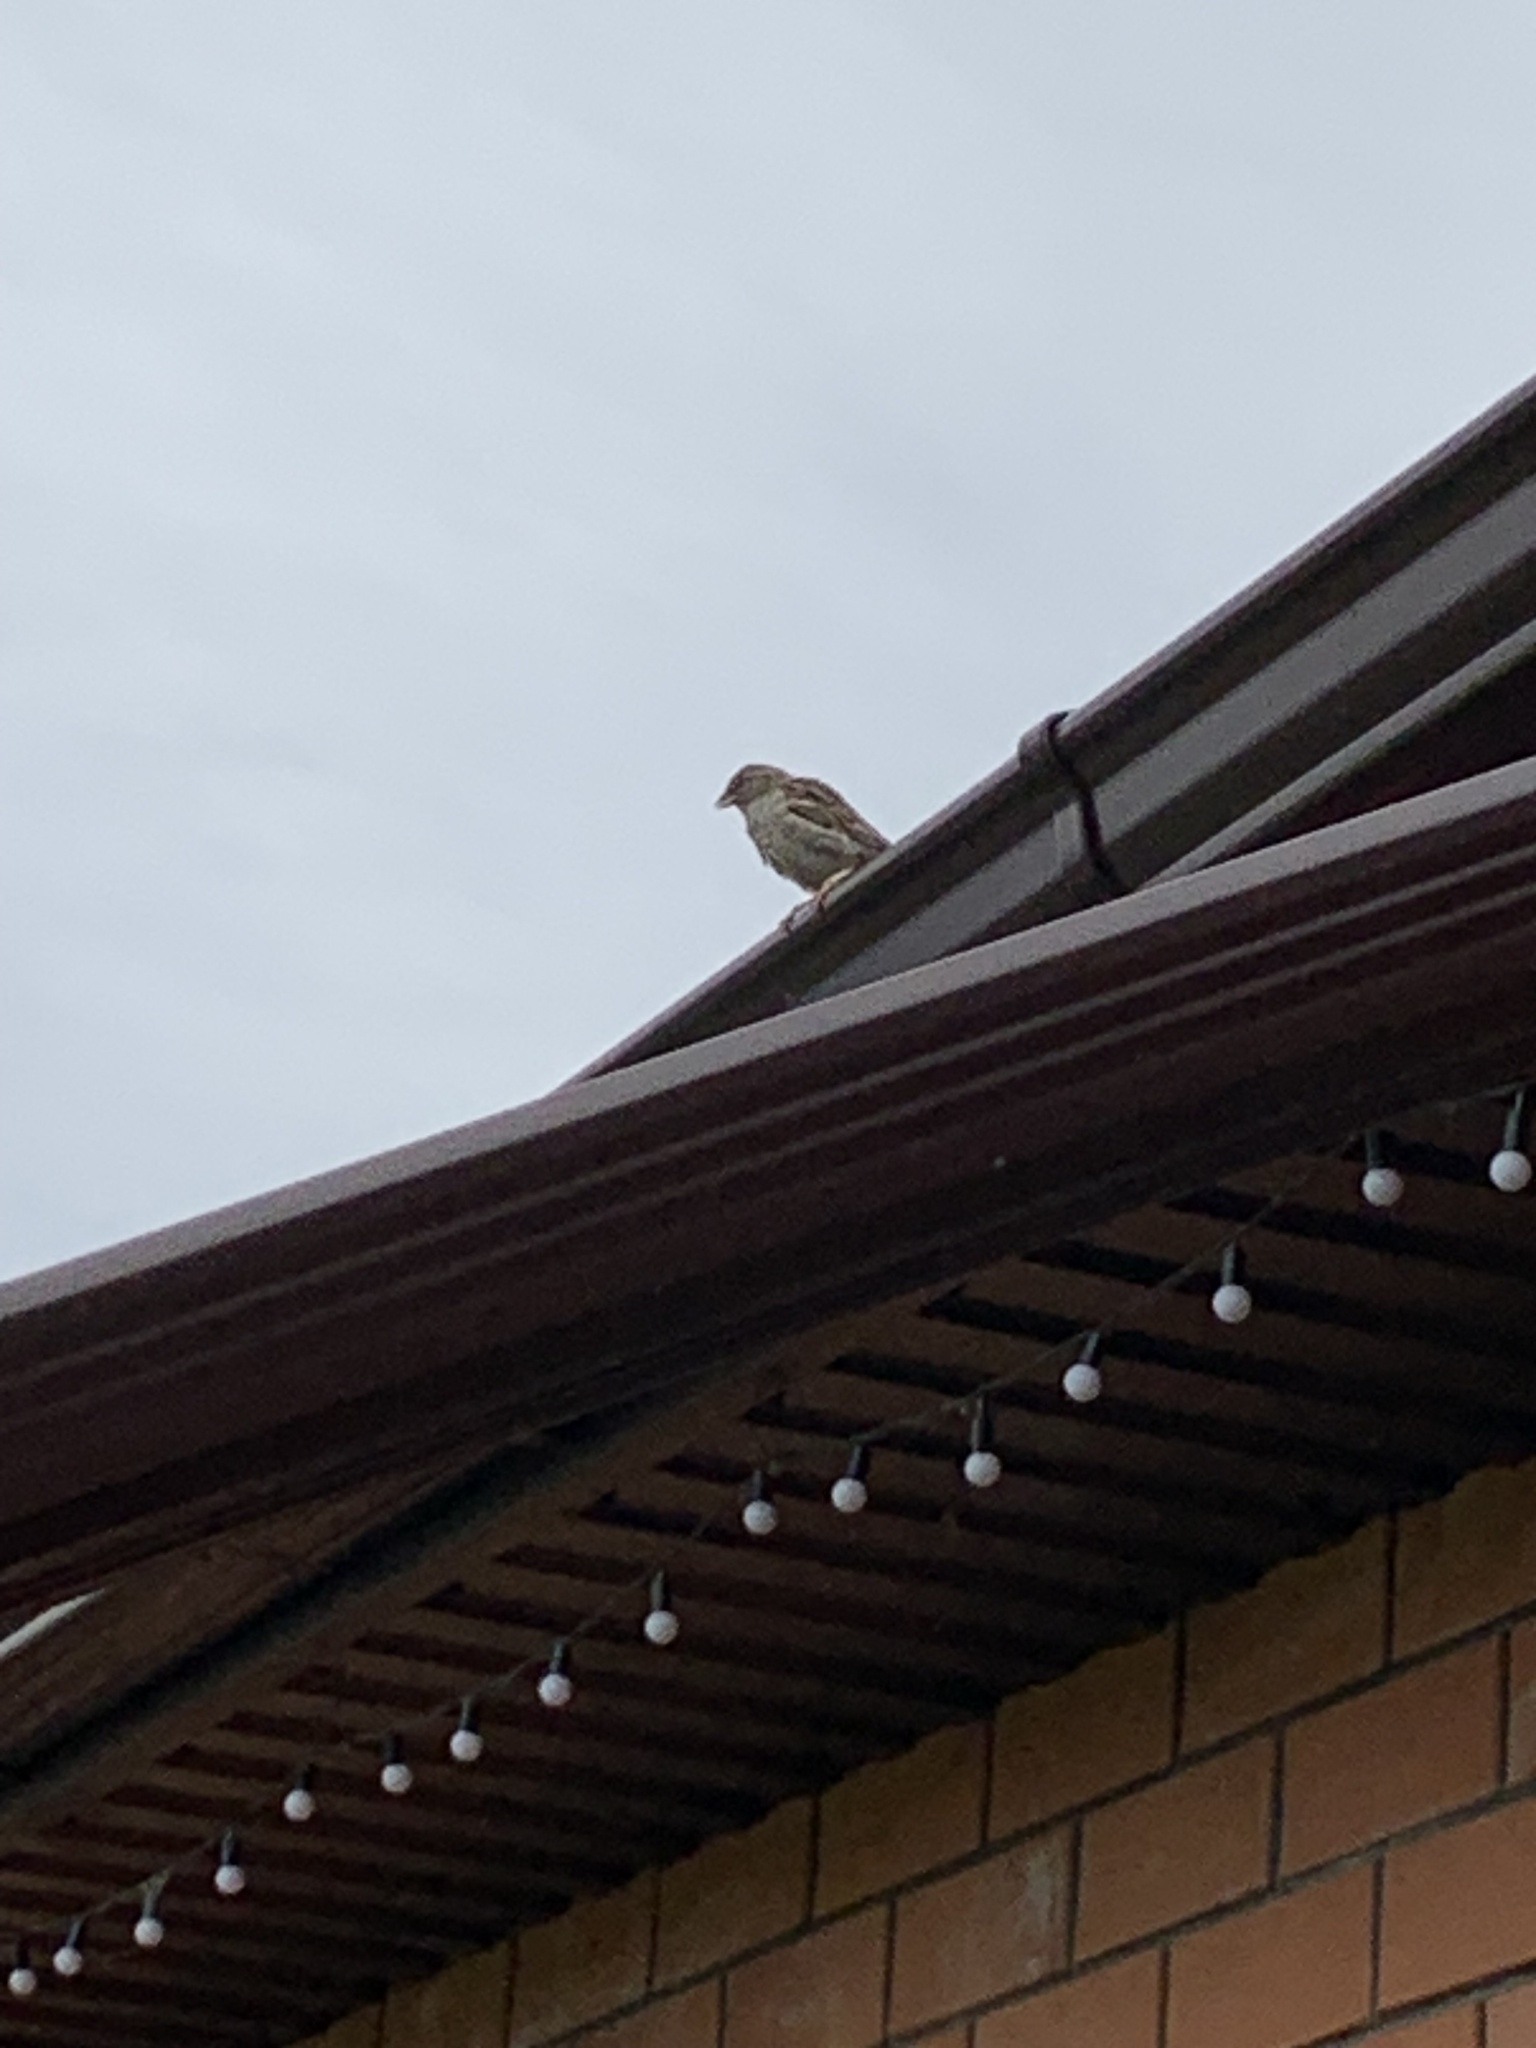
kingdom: Animalia
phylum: Chordata
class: Aves
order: Passeriformes
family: Passeridae
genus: Passer
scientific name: Passer domesticus
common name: House sparrow
